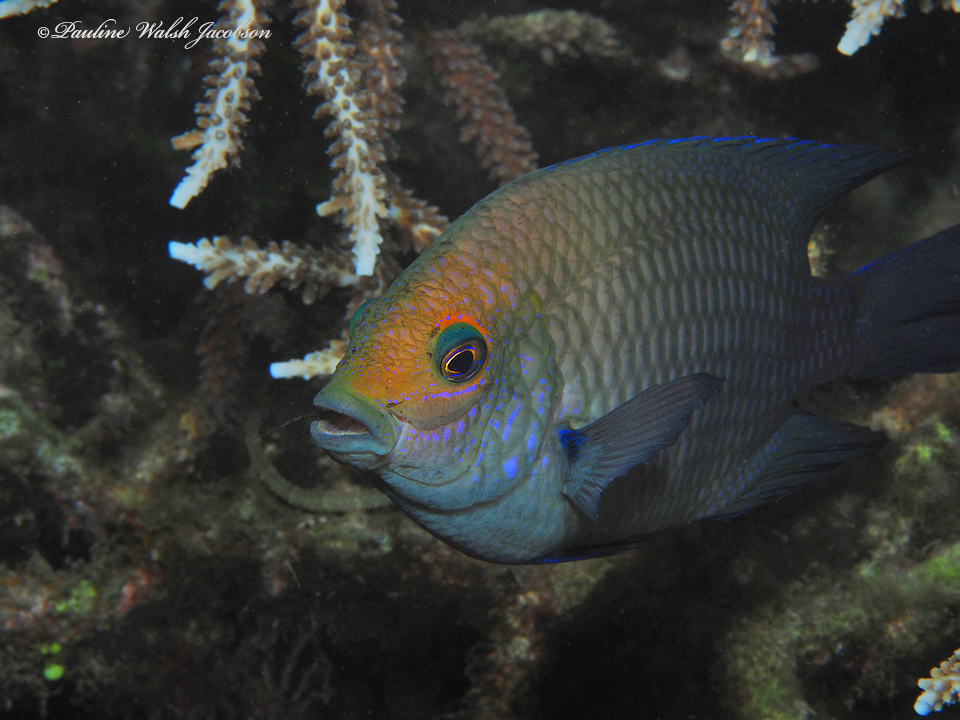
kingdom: Animalia
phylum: Chordata
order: Perciformes
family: Pomacentridae
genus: Hemiglyphidodon
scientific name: Hemiglyphidodon plagiometopon
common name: Lagoon damsel
